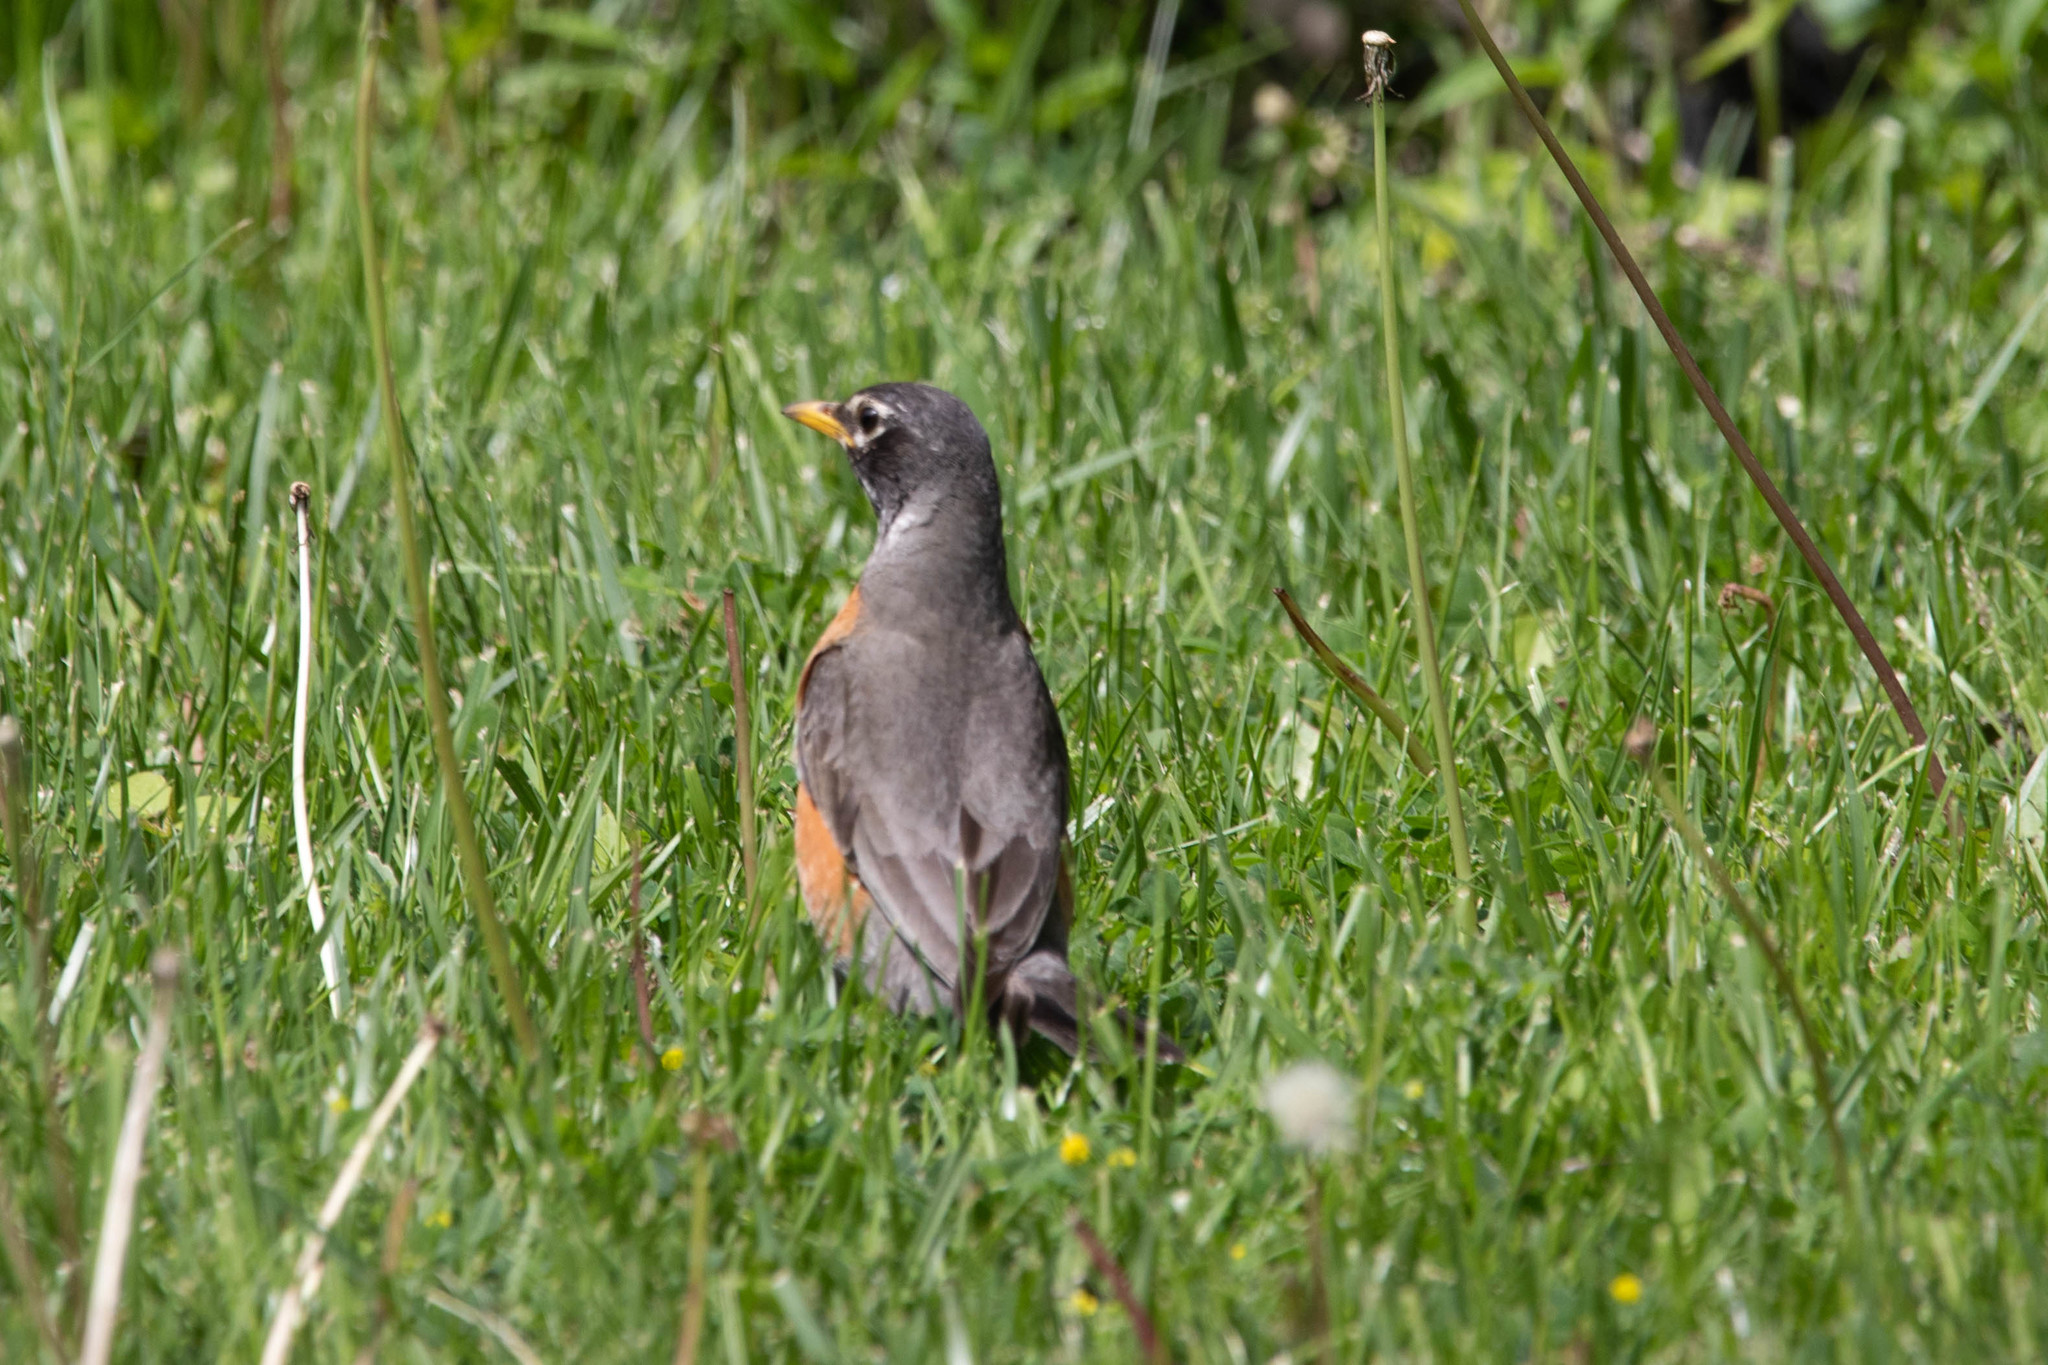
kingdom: Animalia
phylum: Chordata
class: Aves
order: Passeriformes
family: Turdidae
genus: Turdus
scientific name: Turdus migratorius
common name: American robin
